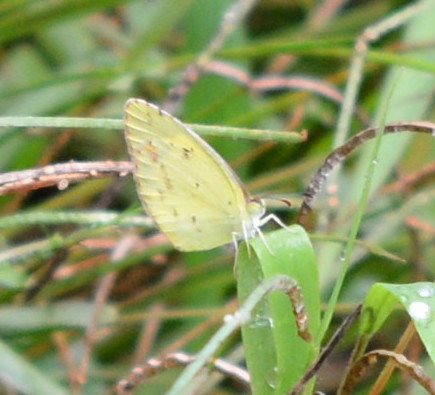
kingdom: Animalia
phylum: Arthropoda
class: Insecta
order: Lepidoptera
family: Pieridae
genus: Pyrisitia
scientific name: Pyrisitia lisa
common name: Little yellow
